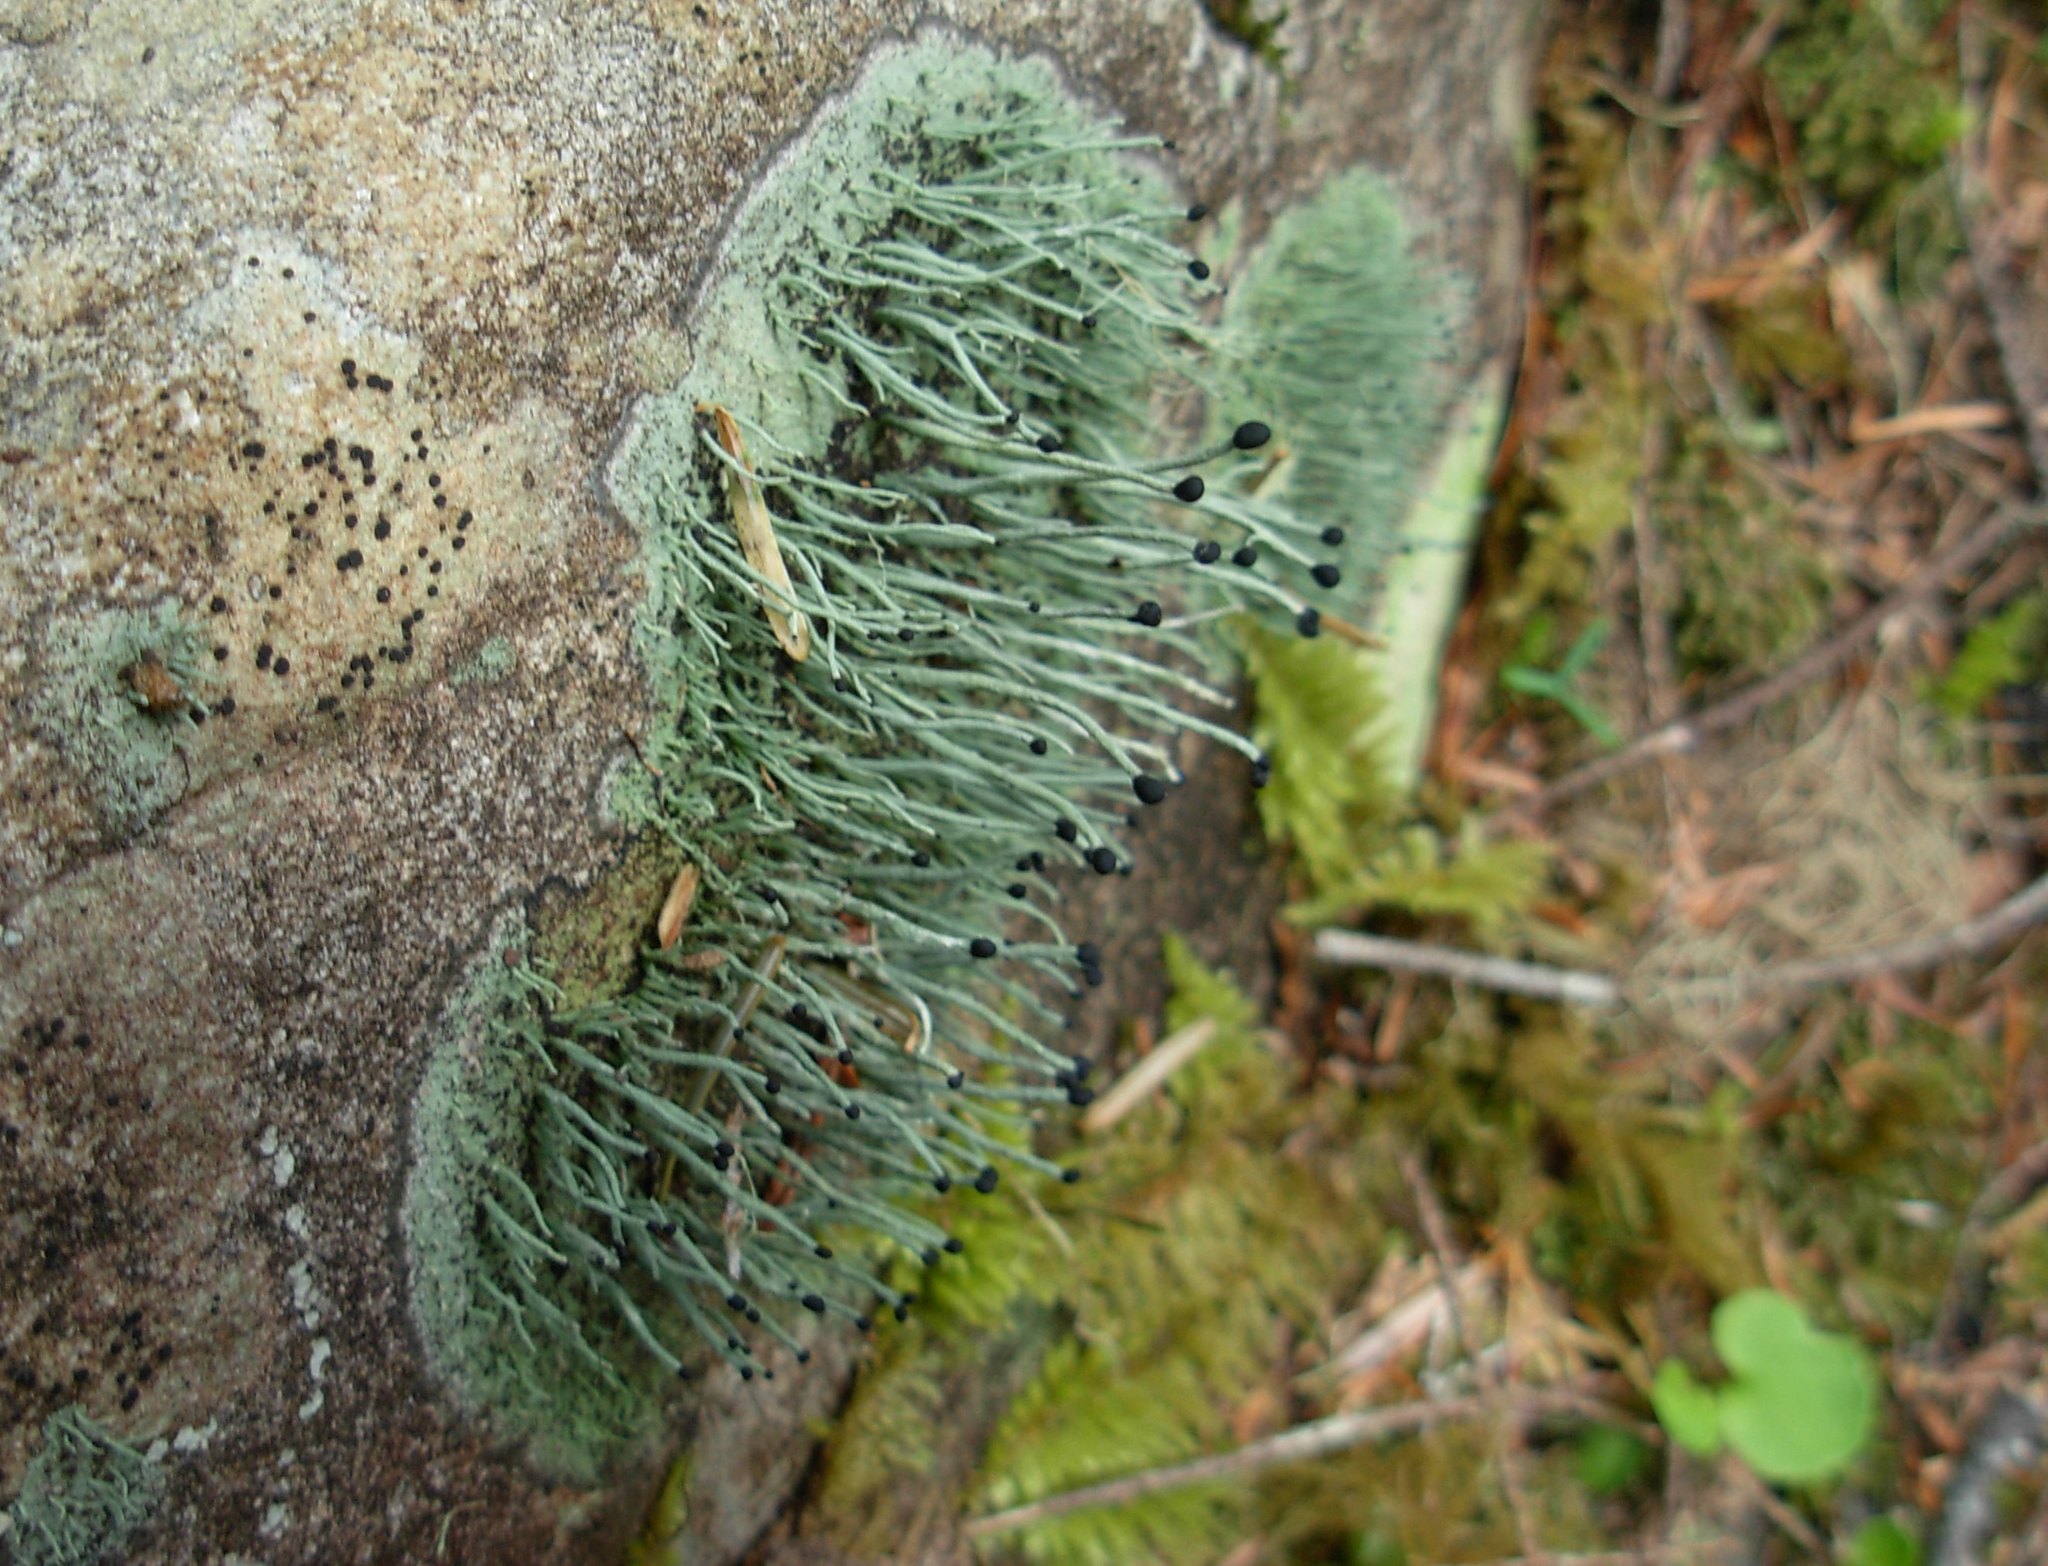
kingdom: Fungi
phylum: Ascomycota
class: Lecanoromycetes
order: Lecanorales
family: Cladoniaceae
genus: Pilophorus
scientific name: Pilophorus acicularis
